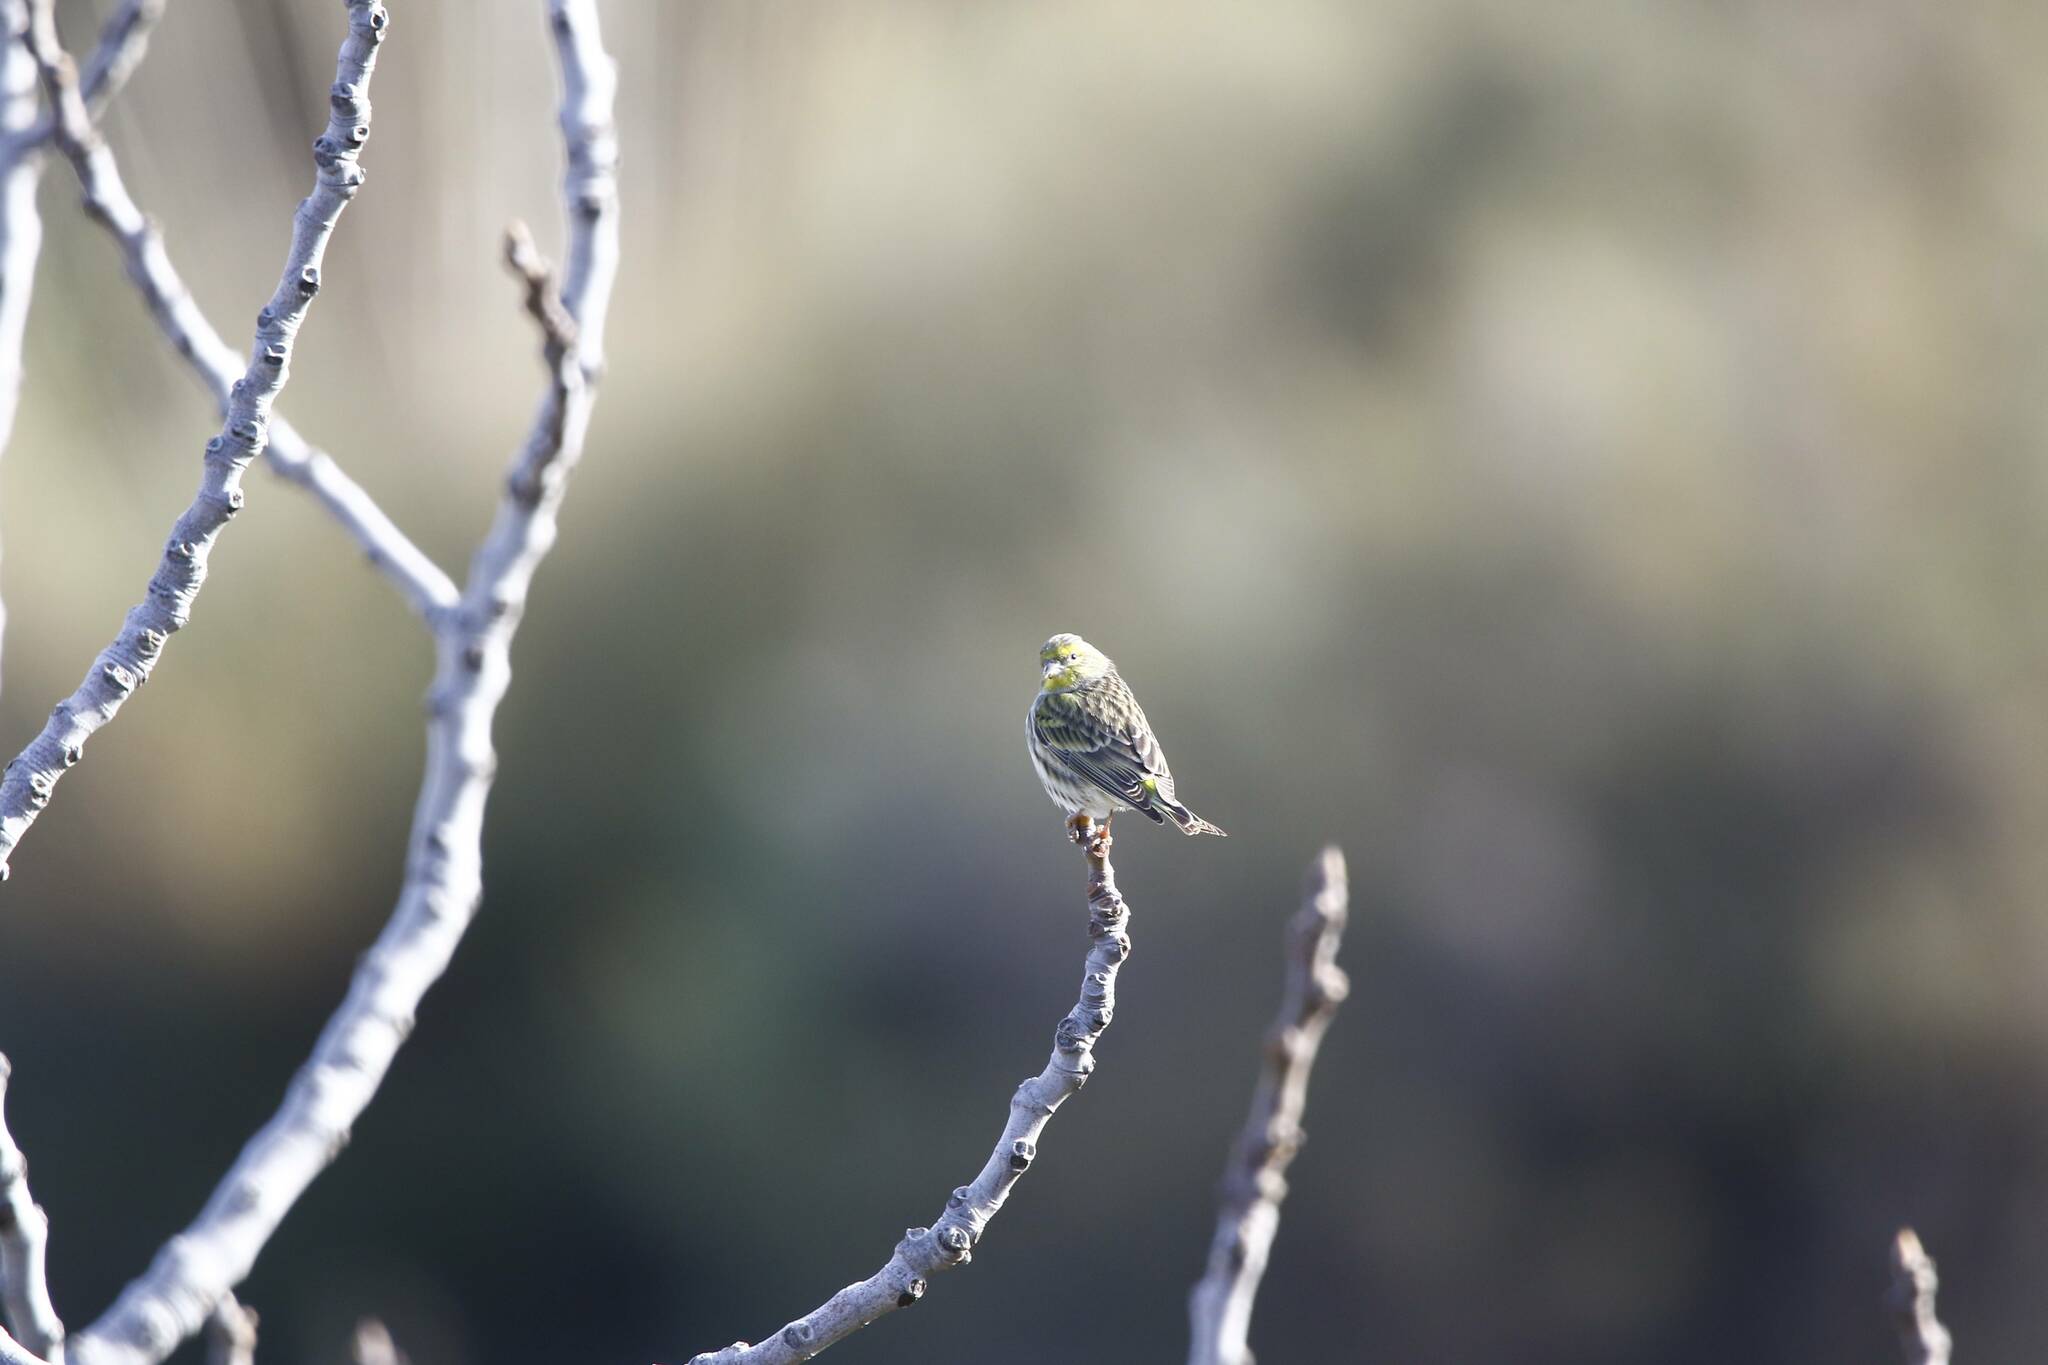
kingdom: Animalia
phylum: Chordata
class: Aves
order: Passeriformes
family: Fringillidae
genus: Serinus
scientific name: Serinus serinus
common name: European serin
